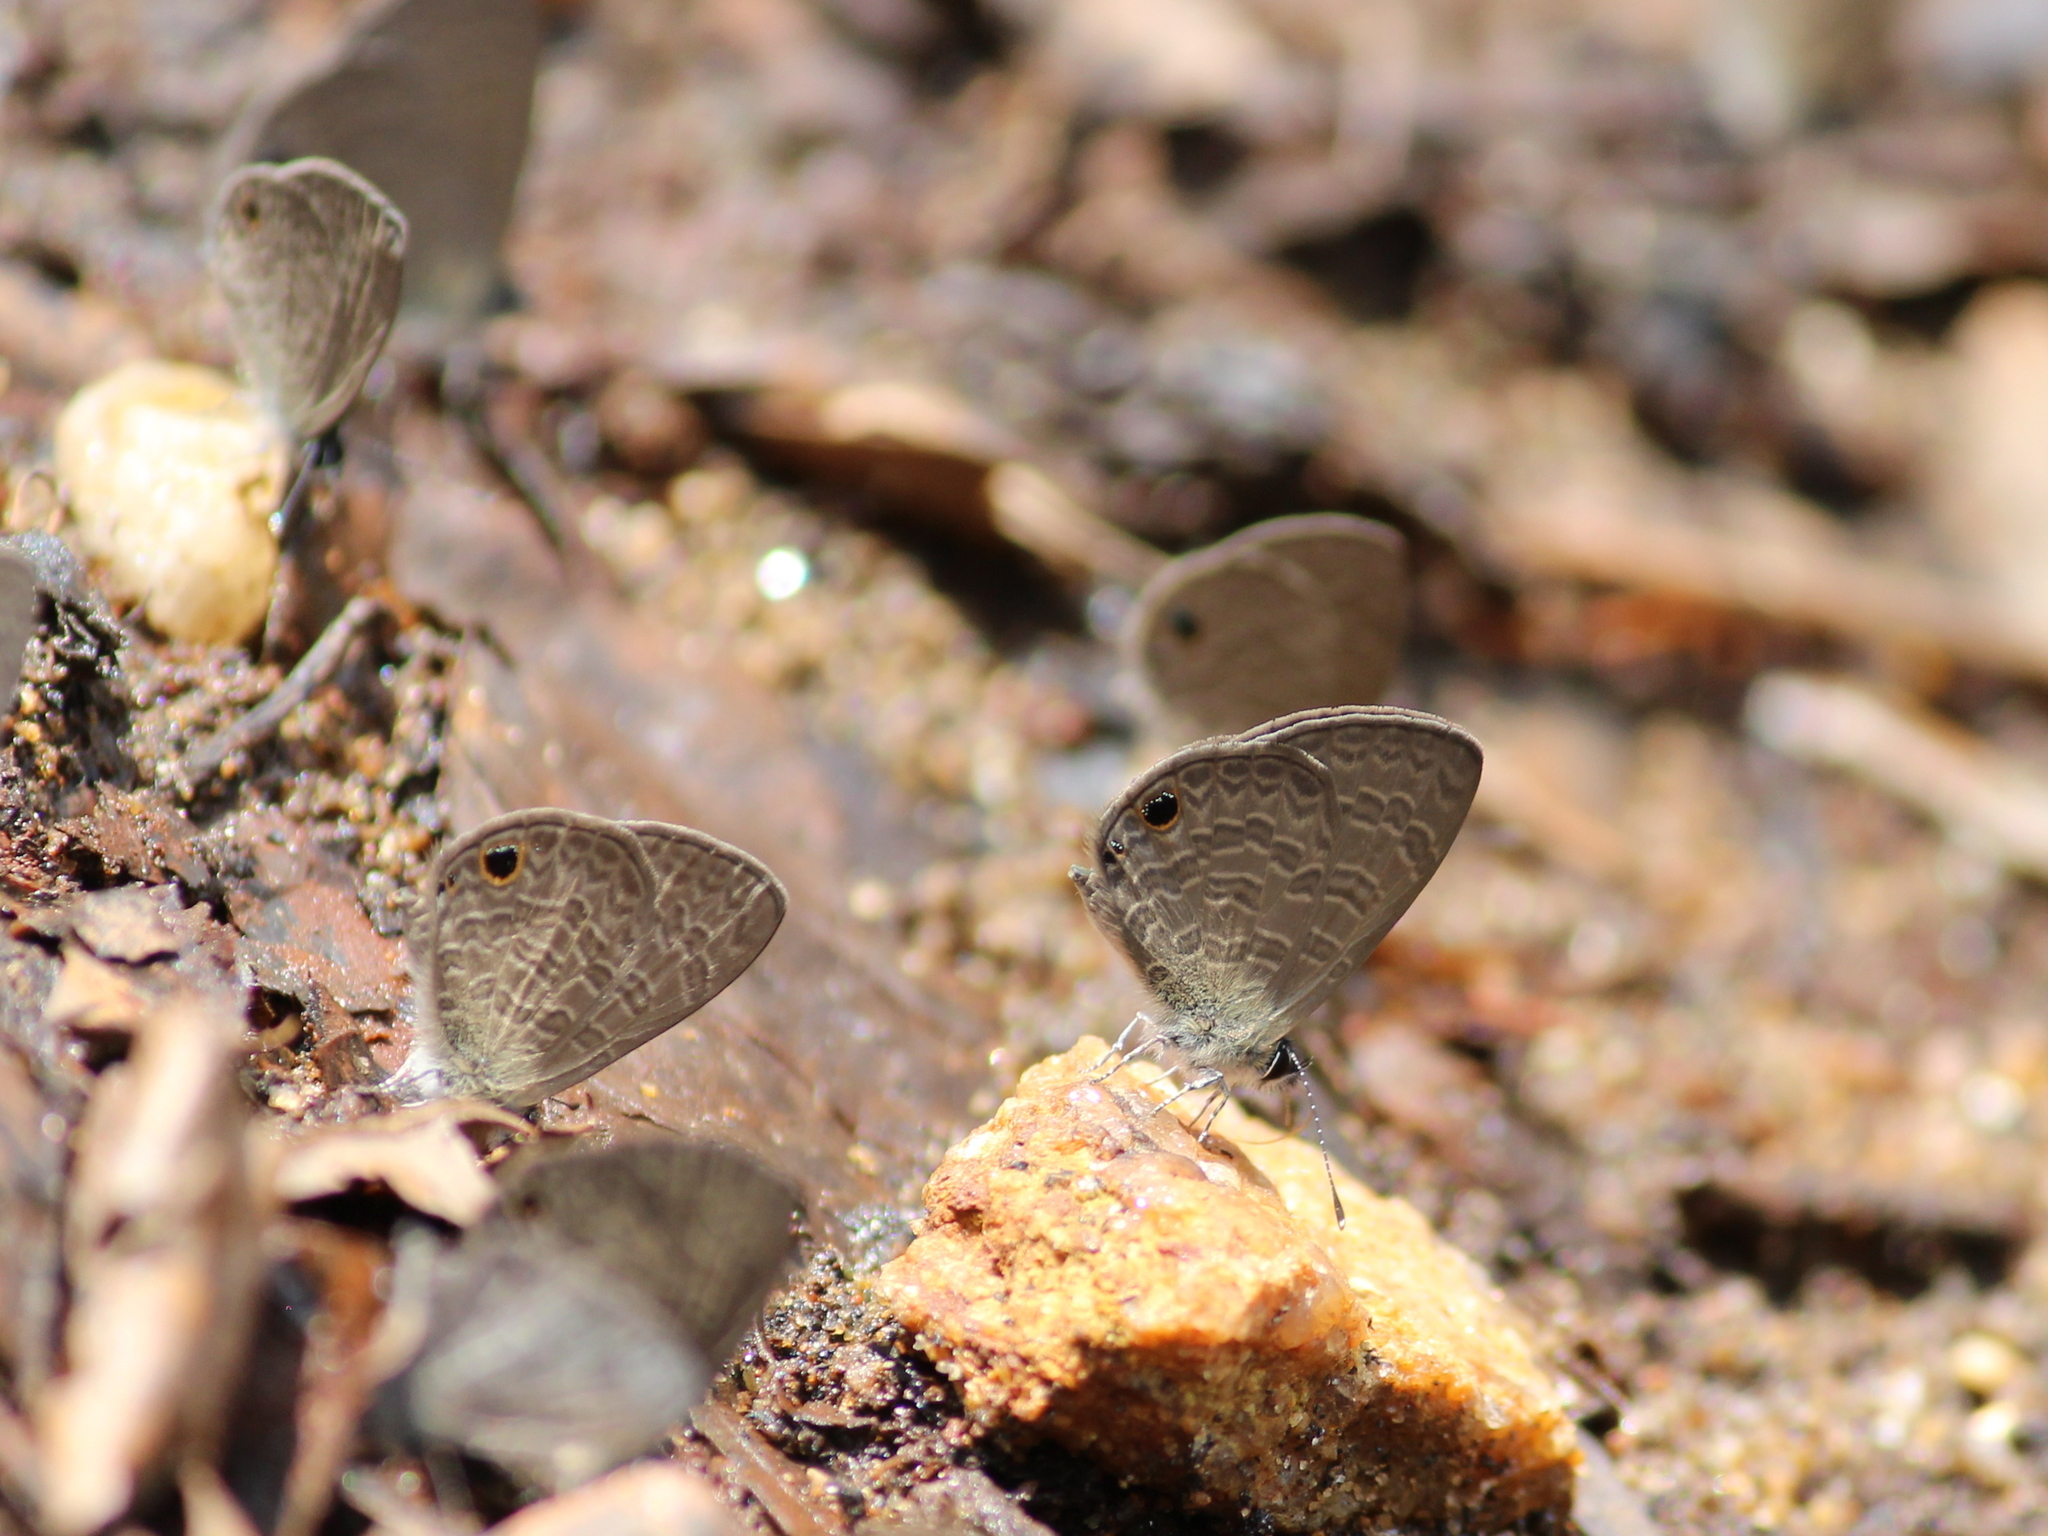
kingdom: Animalia
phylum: Arthropoda
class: Insecta
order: Lepidoptera
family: Lycaenidae
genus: Prosotas
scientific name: Prosotas dubiosa
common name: Tailless lineblue
